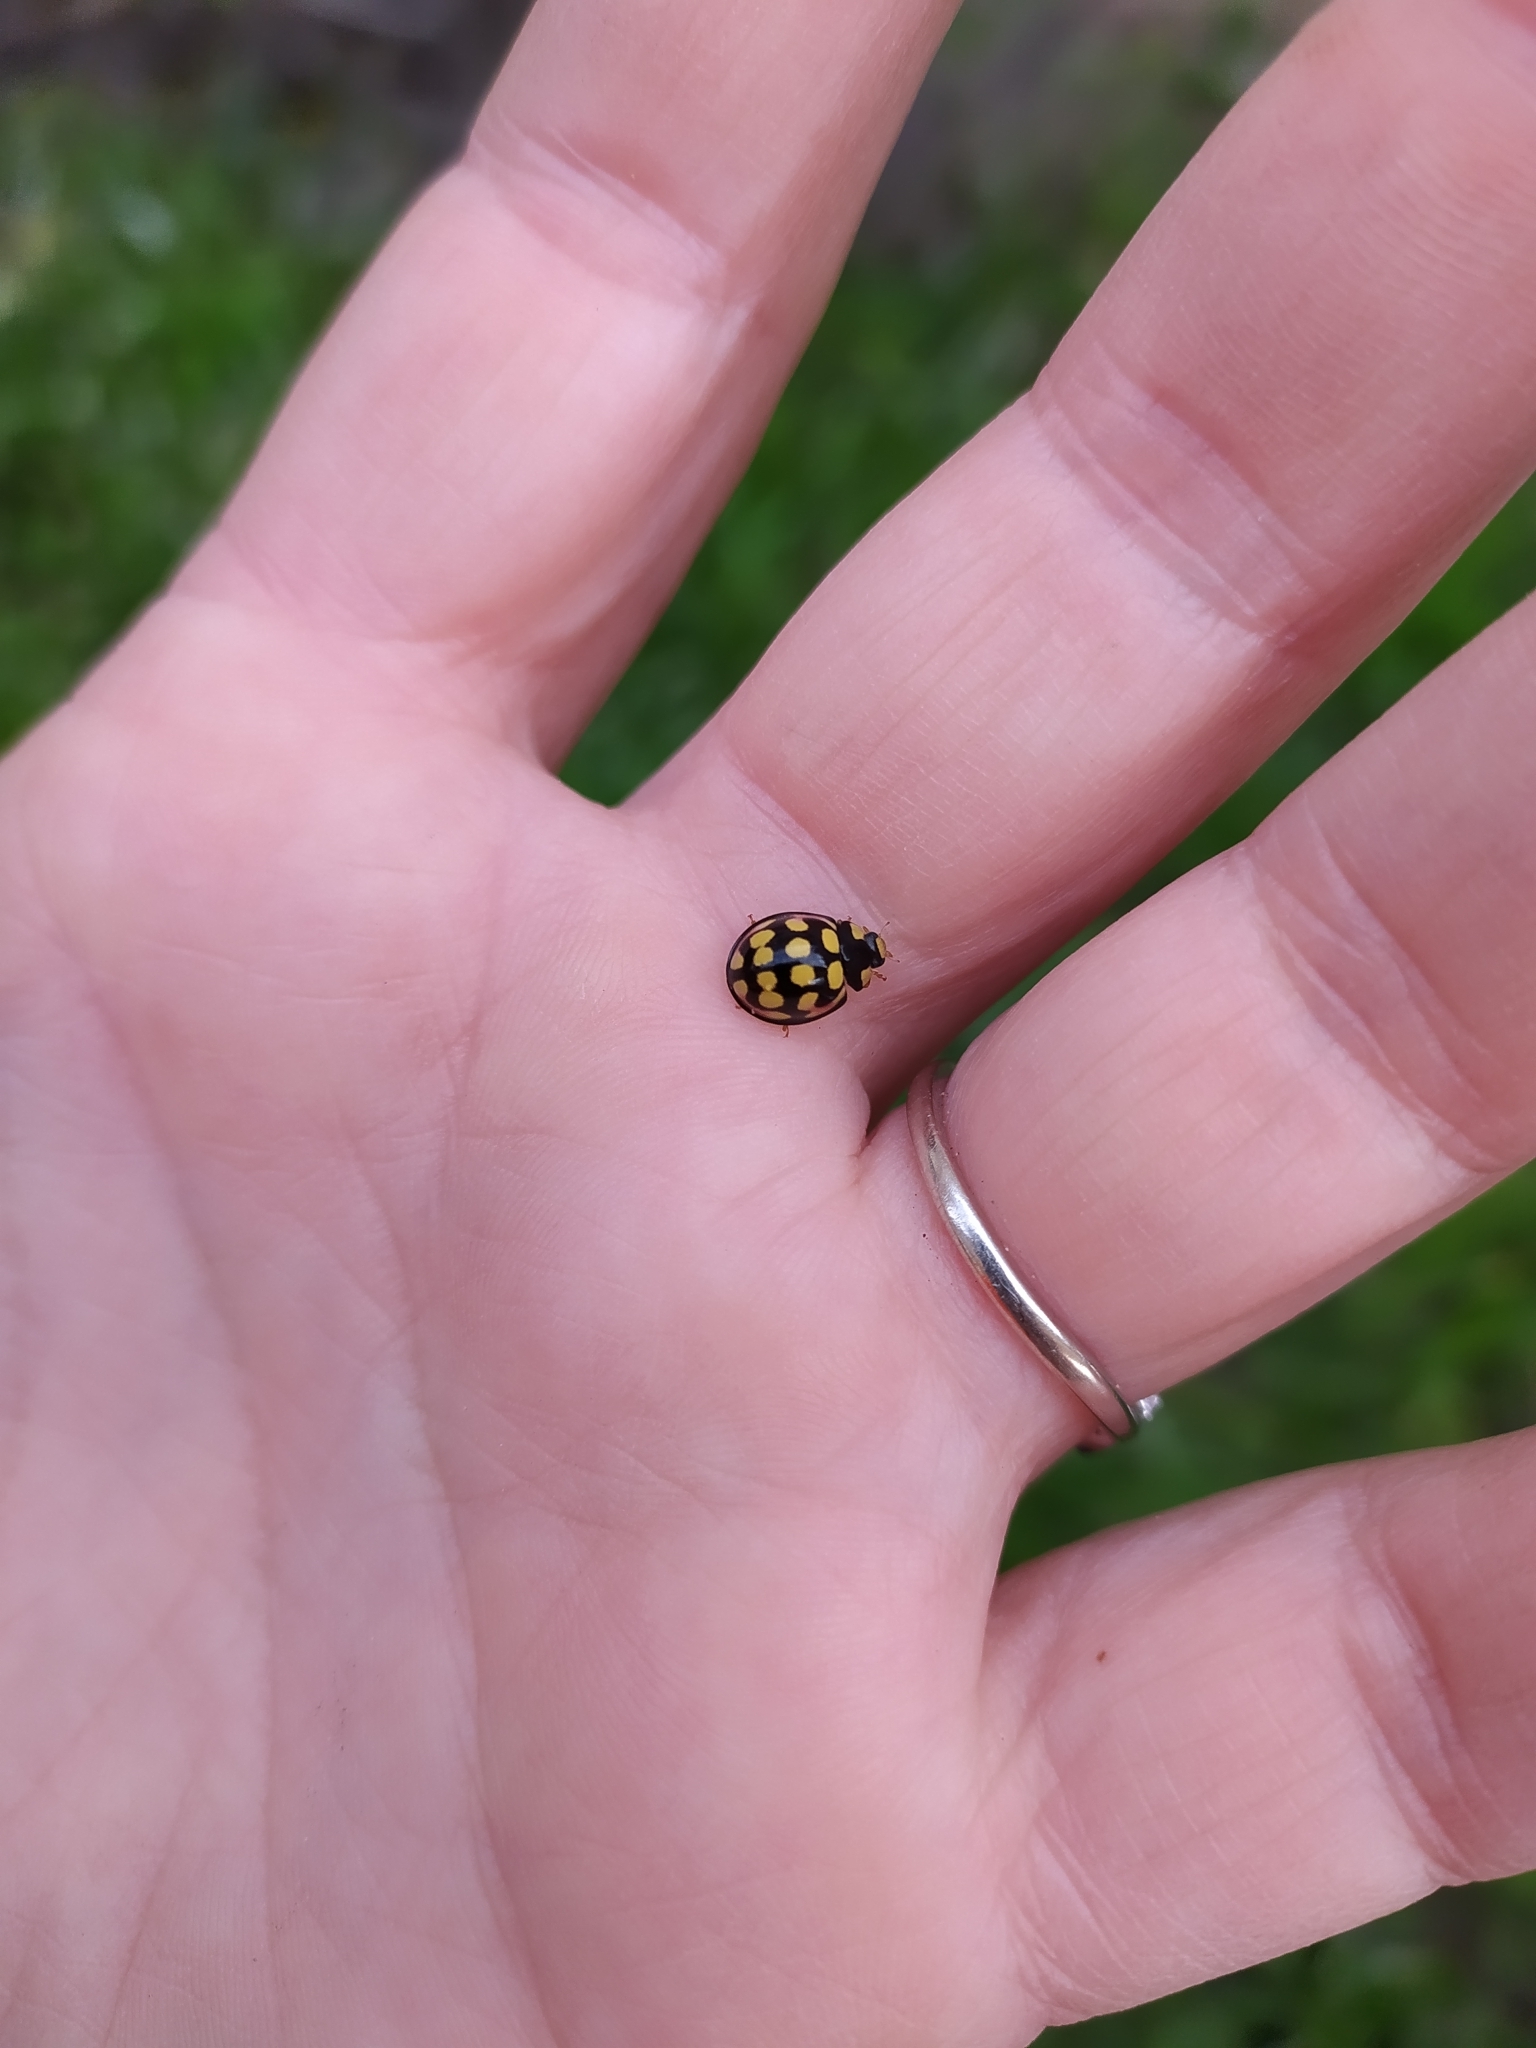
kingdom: Animalia
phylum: Arthropoda
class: Insecta
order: Coleoptera
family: Coccinellidae
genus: Cheilomenes
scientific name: Cheilomenes sulphurea
